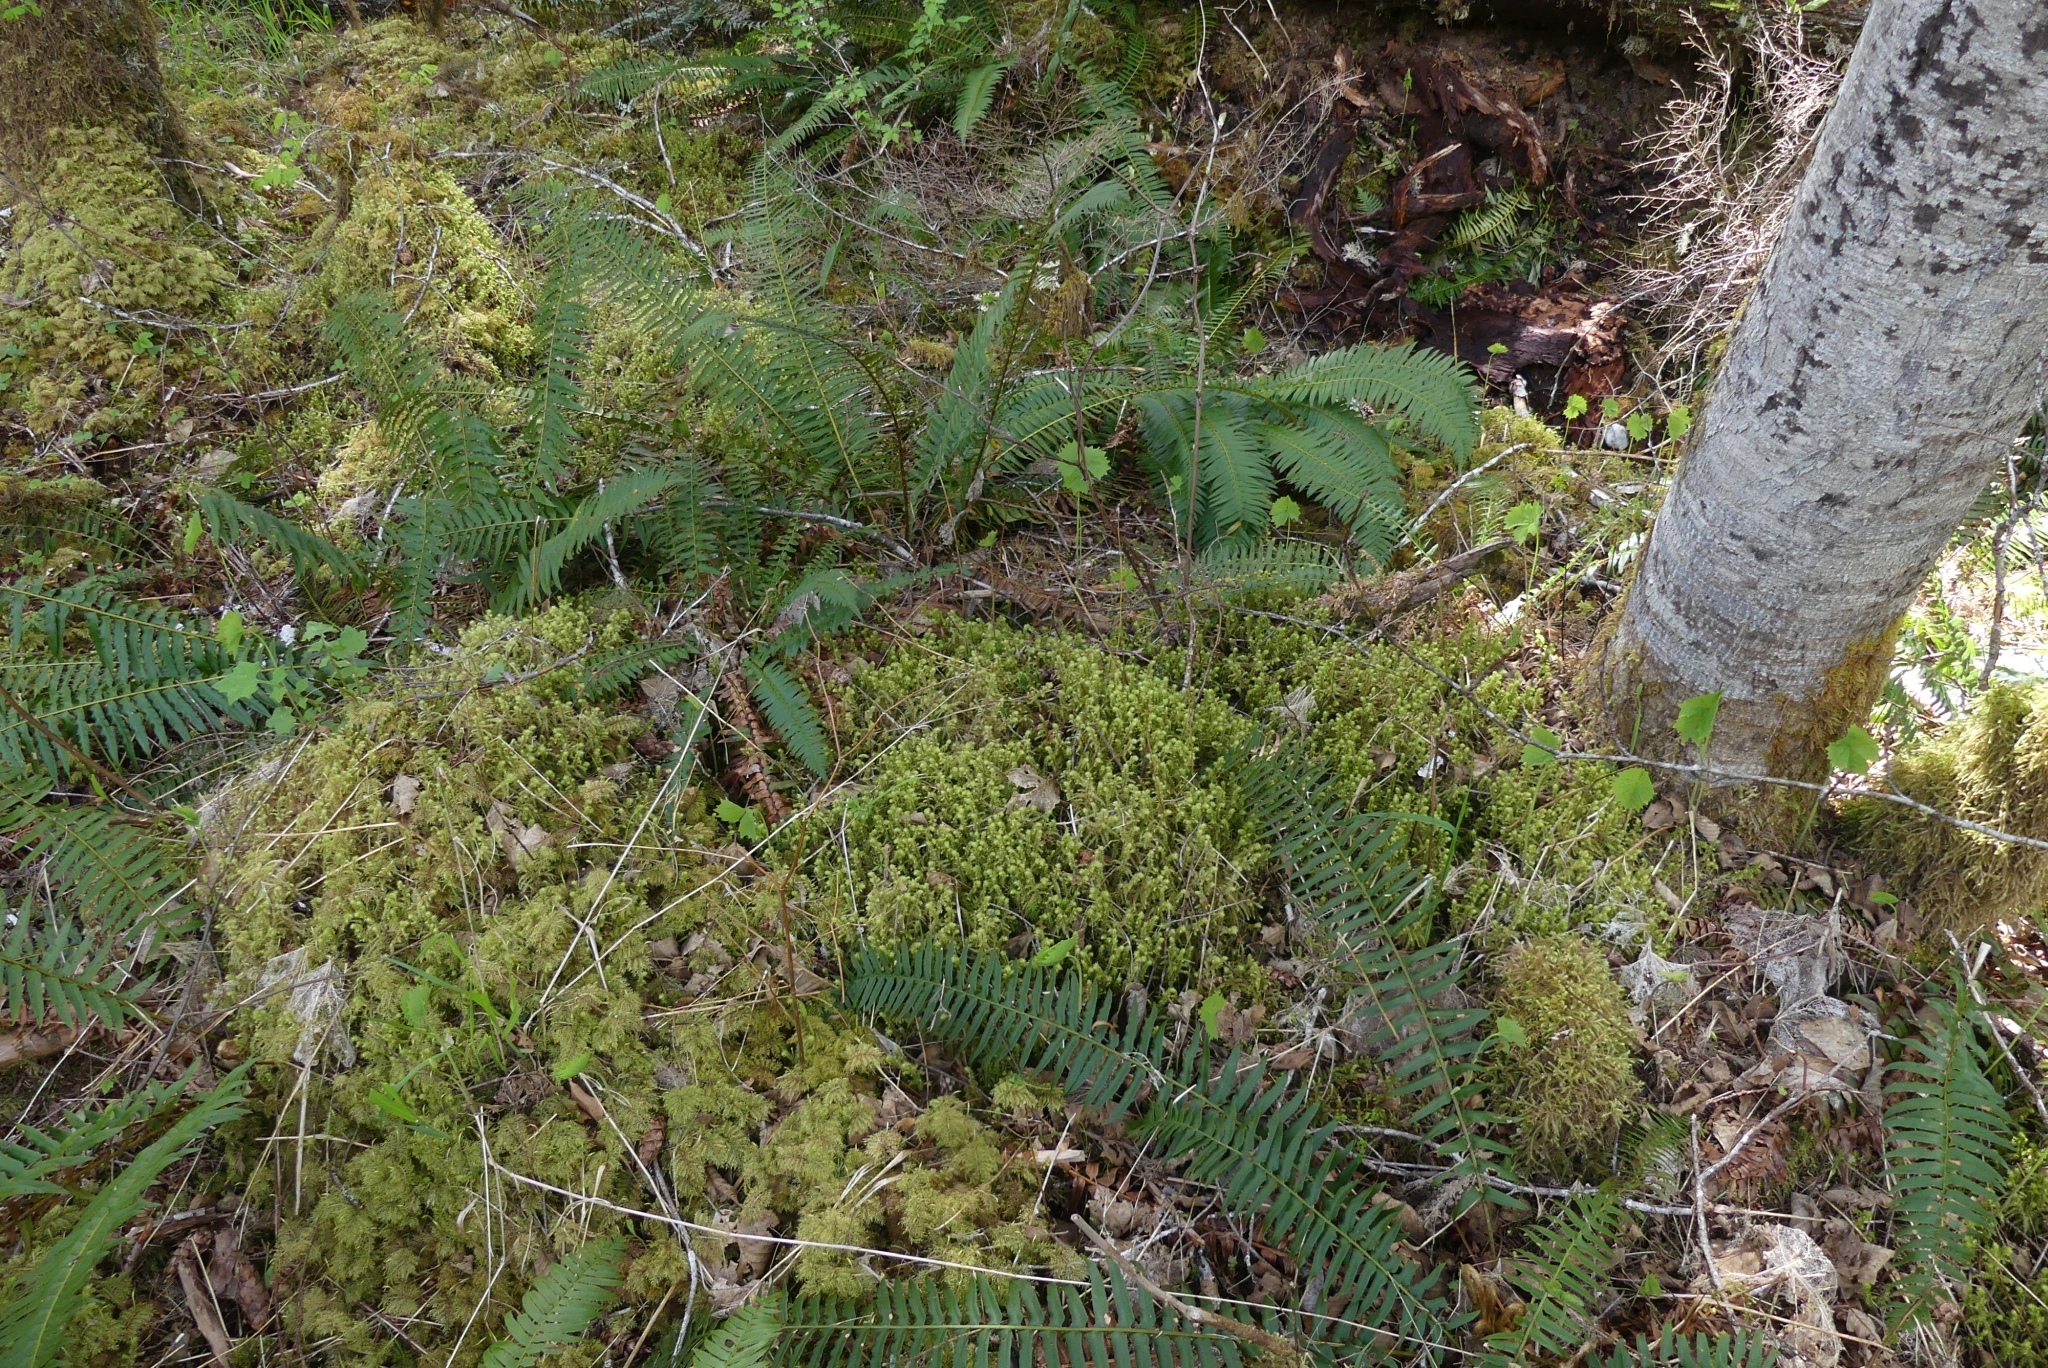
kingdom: Plantae
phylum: Bryophyta
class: Bryopsida
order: Hypnales
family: Hylocomiaceae
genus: Hylocomiadelphus
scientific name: Hylocomiadelphus triquetrus
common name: Rough goose neck moss
